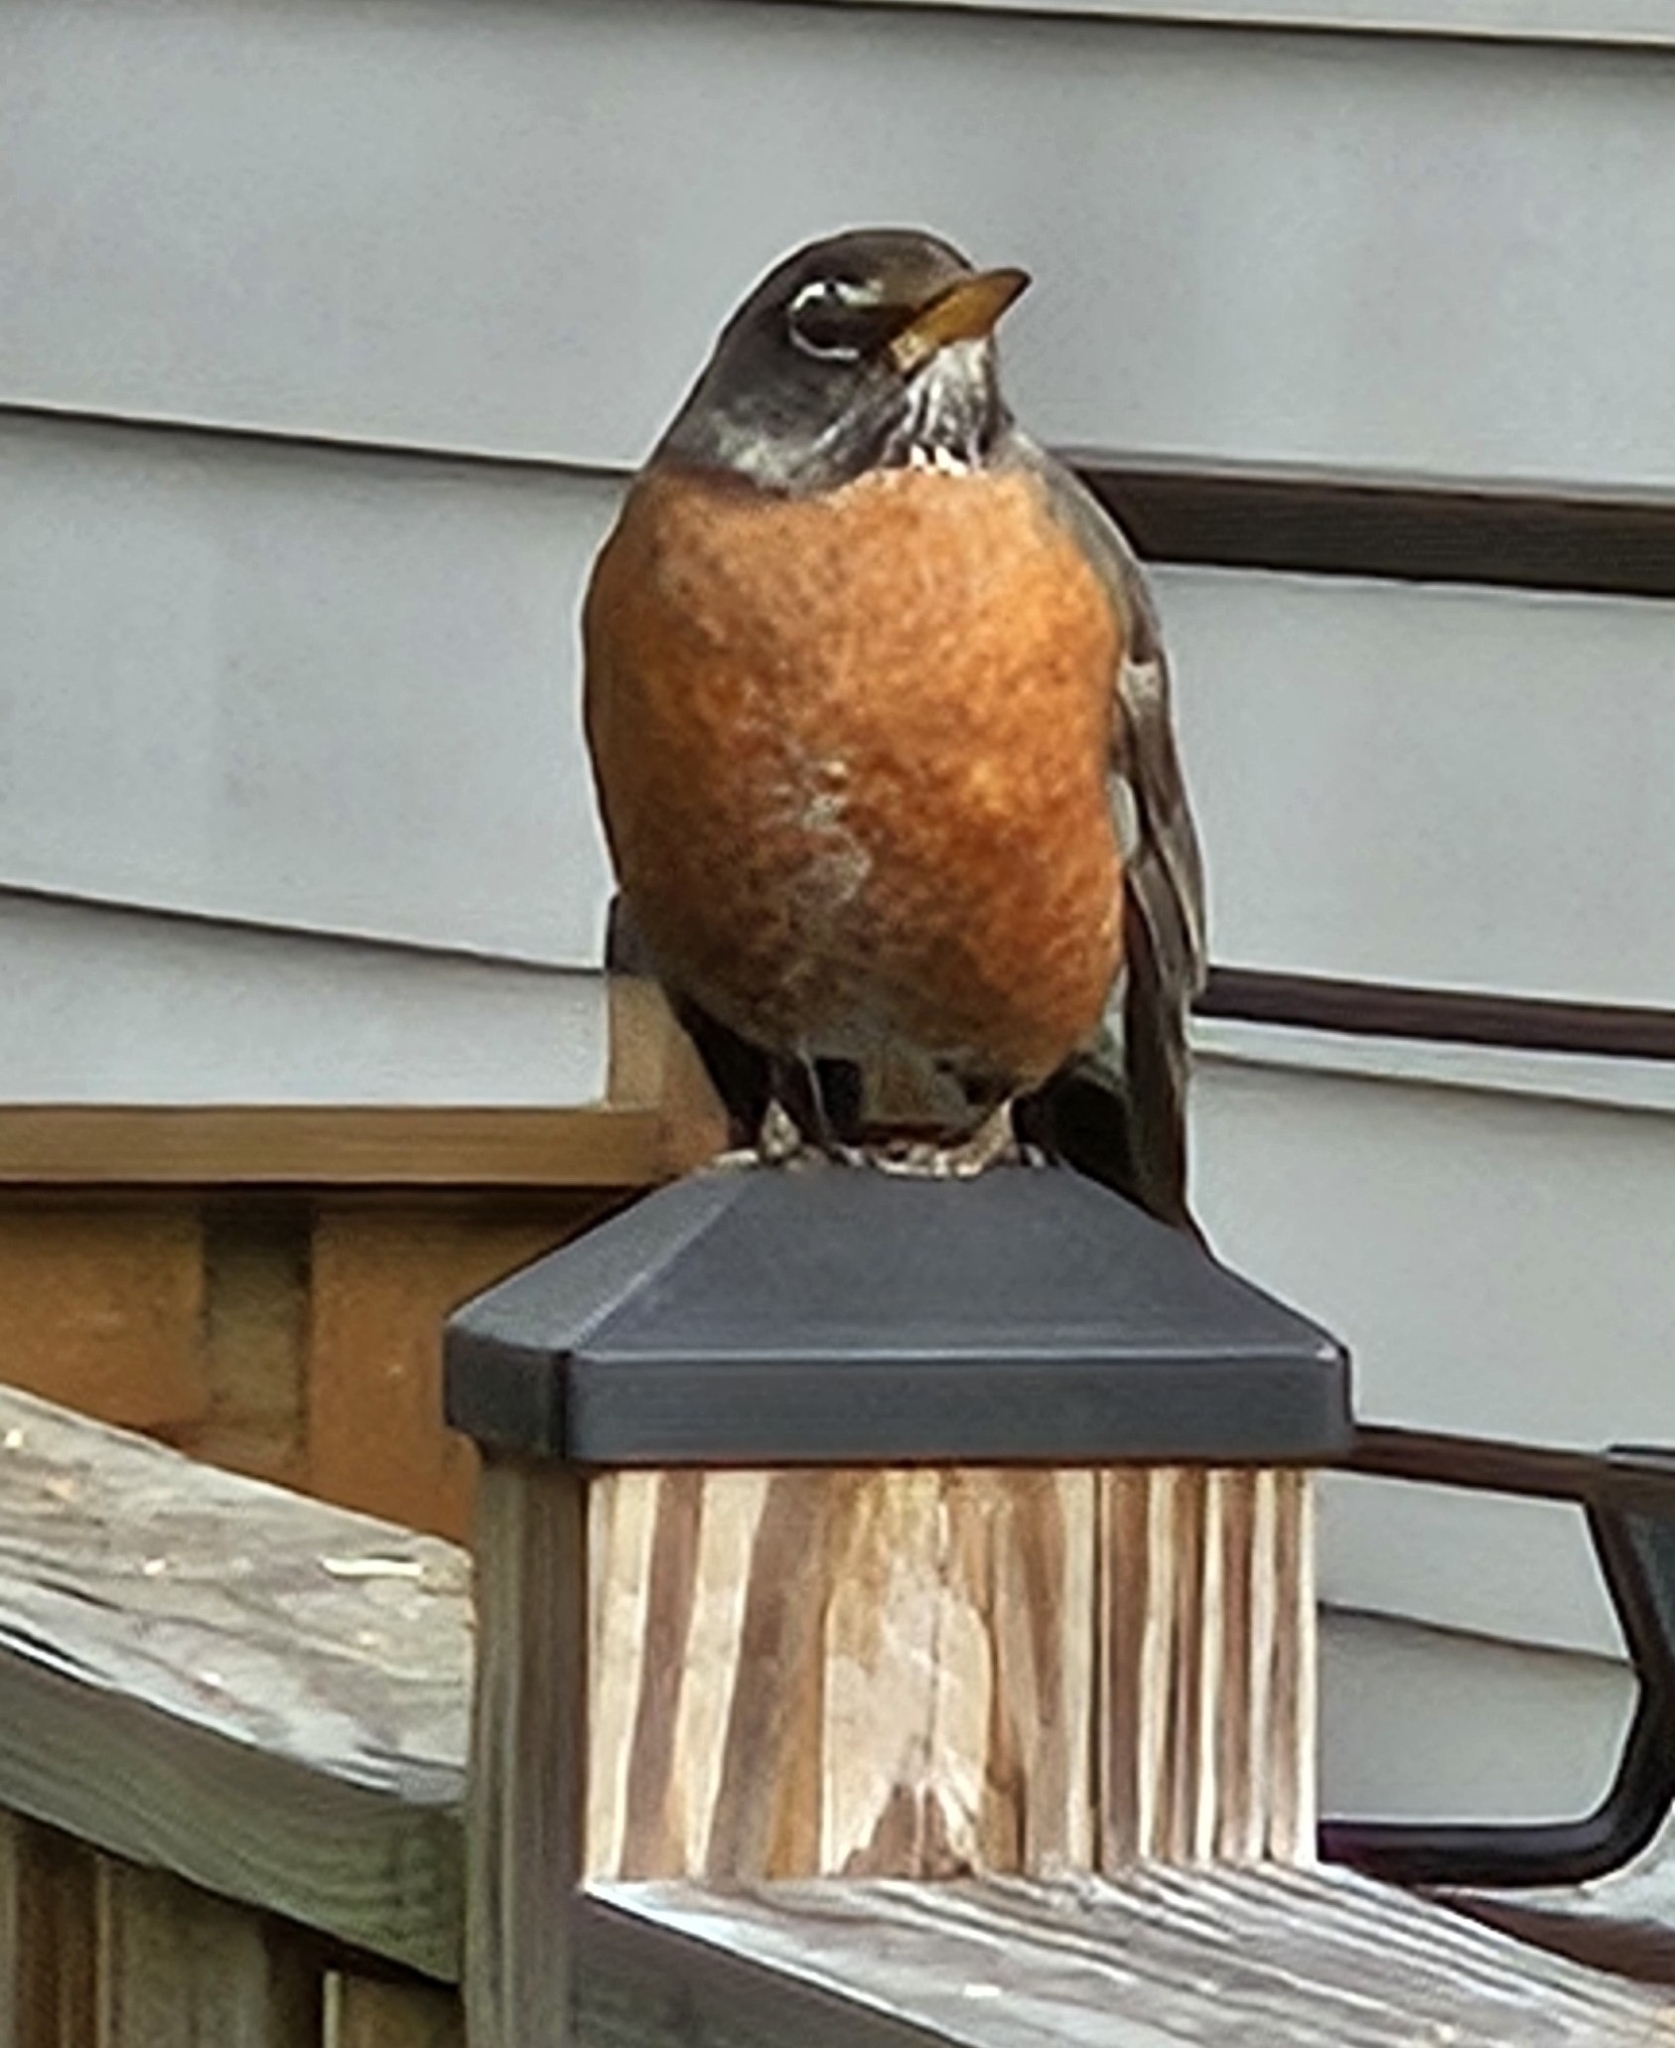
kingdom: Animalia
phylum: Chordata
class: Aves
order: Passeriformes
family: Turdidae
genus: Turdus
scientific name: Turdus migratorius
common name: American robin
